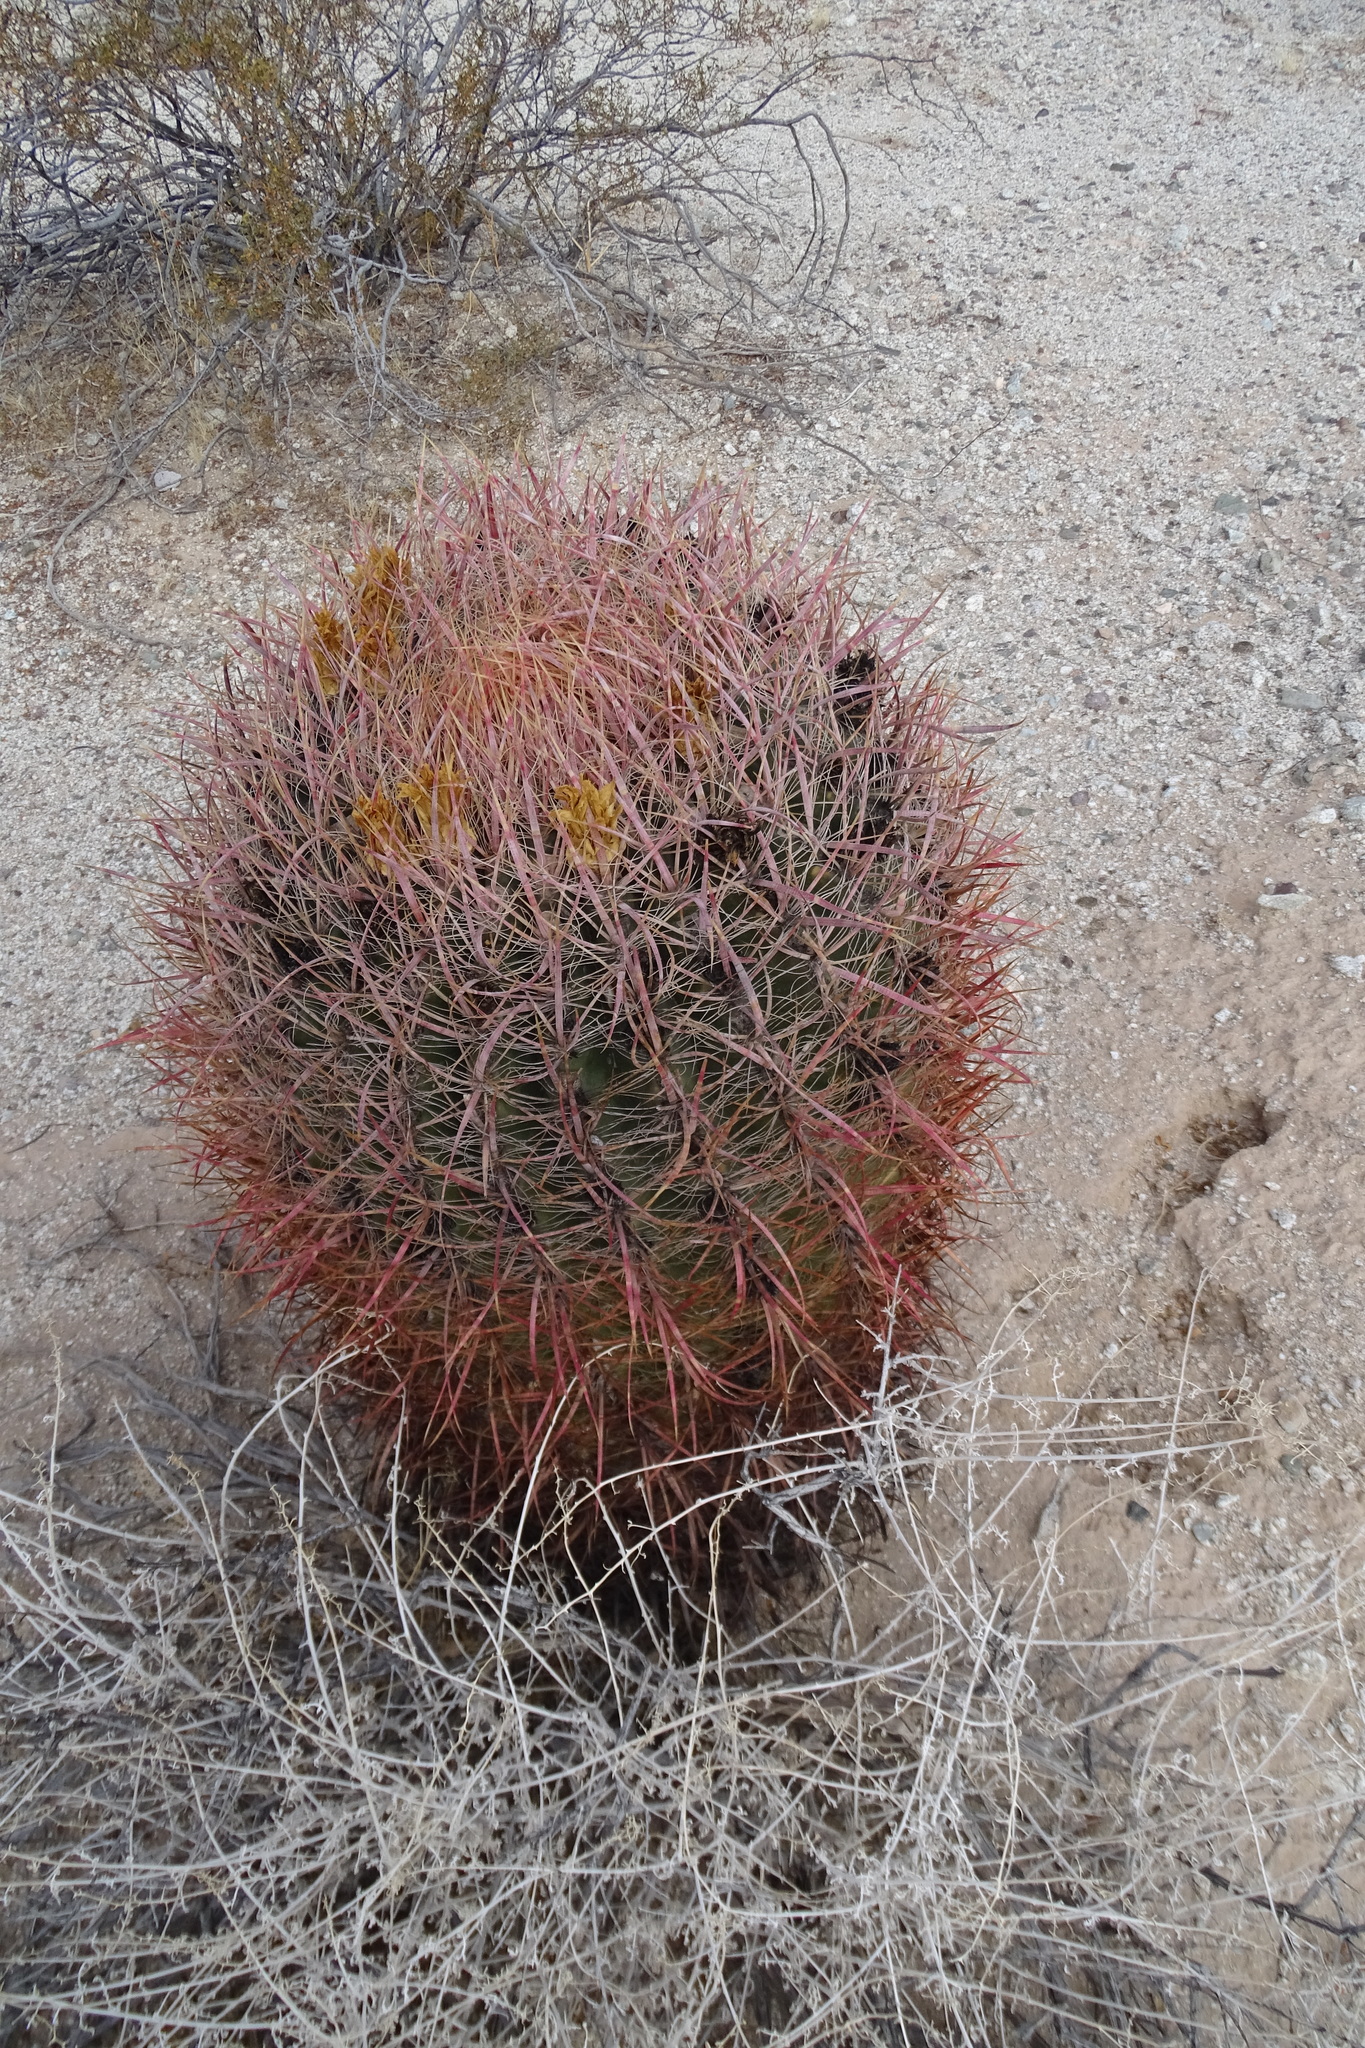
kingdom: Plantae
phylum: Tracheophyta
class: Magnoliopsida
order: Caryophyllales
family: Cactaceae
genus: Ferocactus
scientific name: Ferocactus cylindraceus
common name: California barrel cactus
